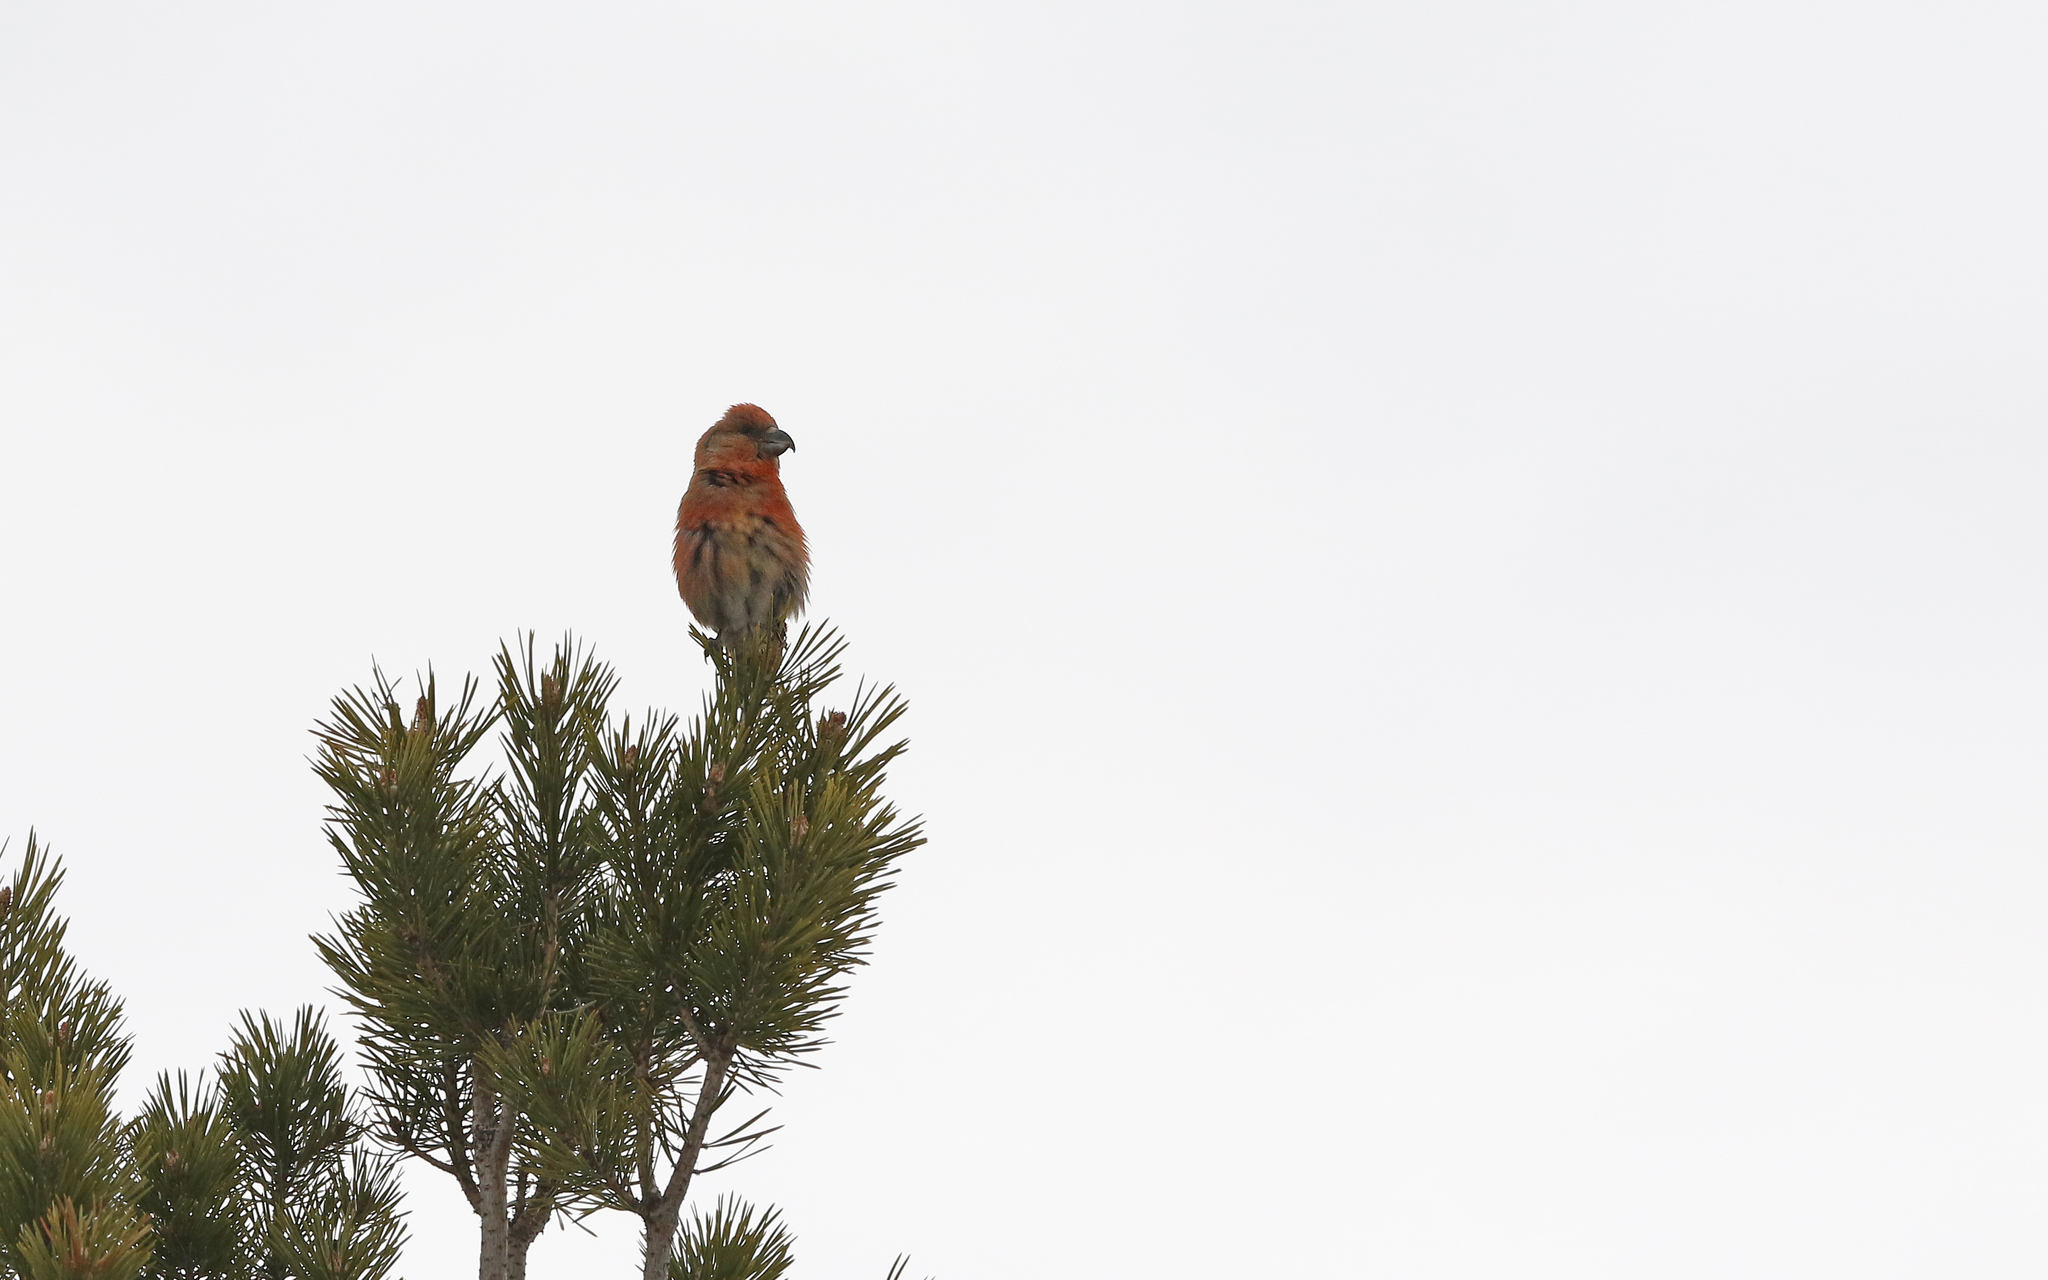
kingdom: Animalia
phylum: Chordata
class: Aves
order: Passeriformes
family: Fringillidae
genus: Loxia
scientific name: Loxia pytyopsittacus
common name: Parrot crossbill
